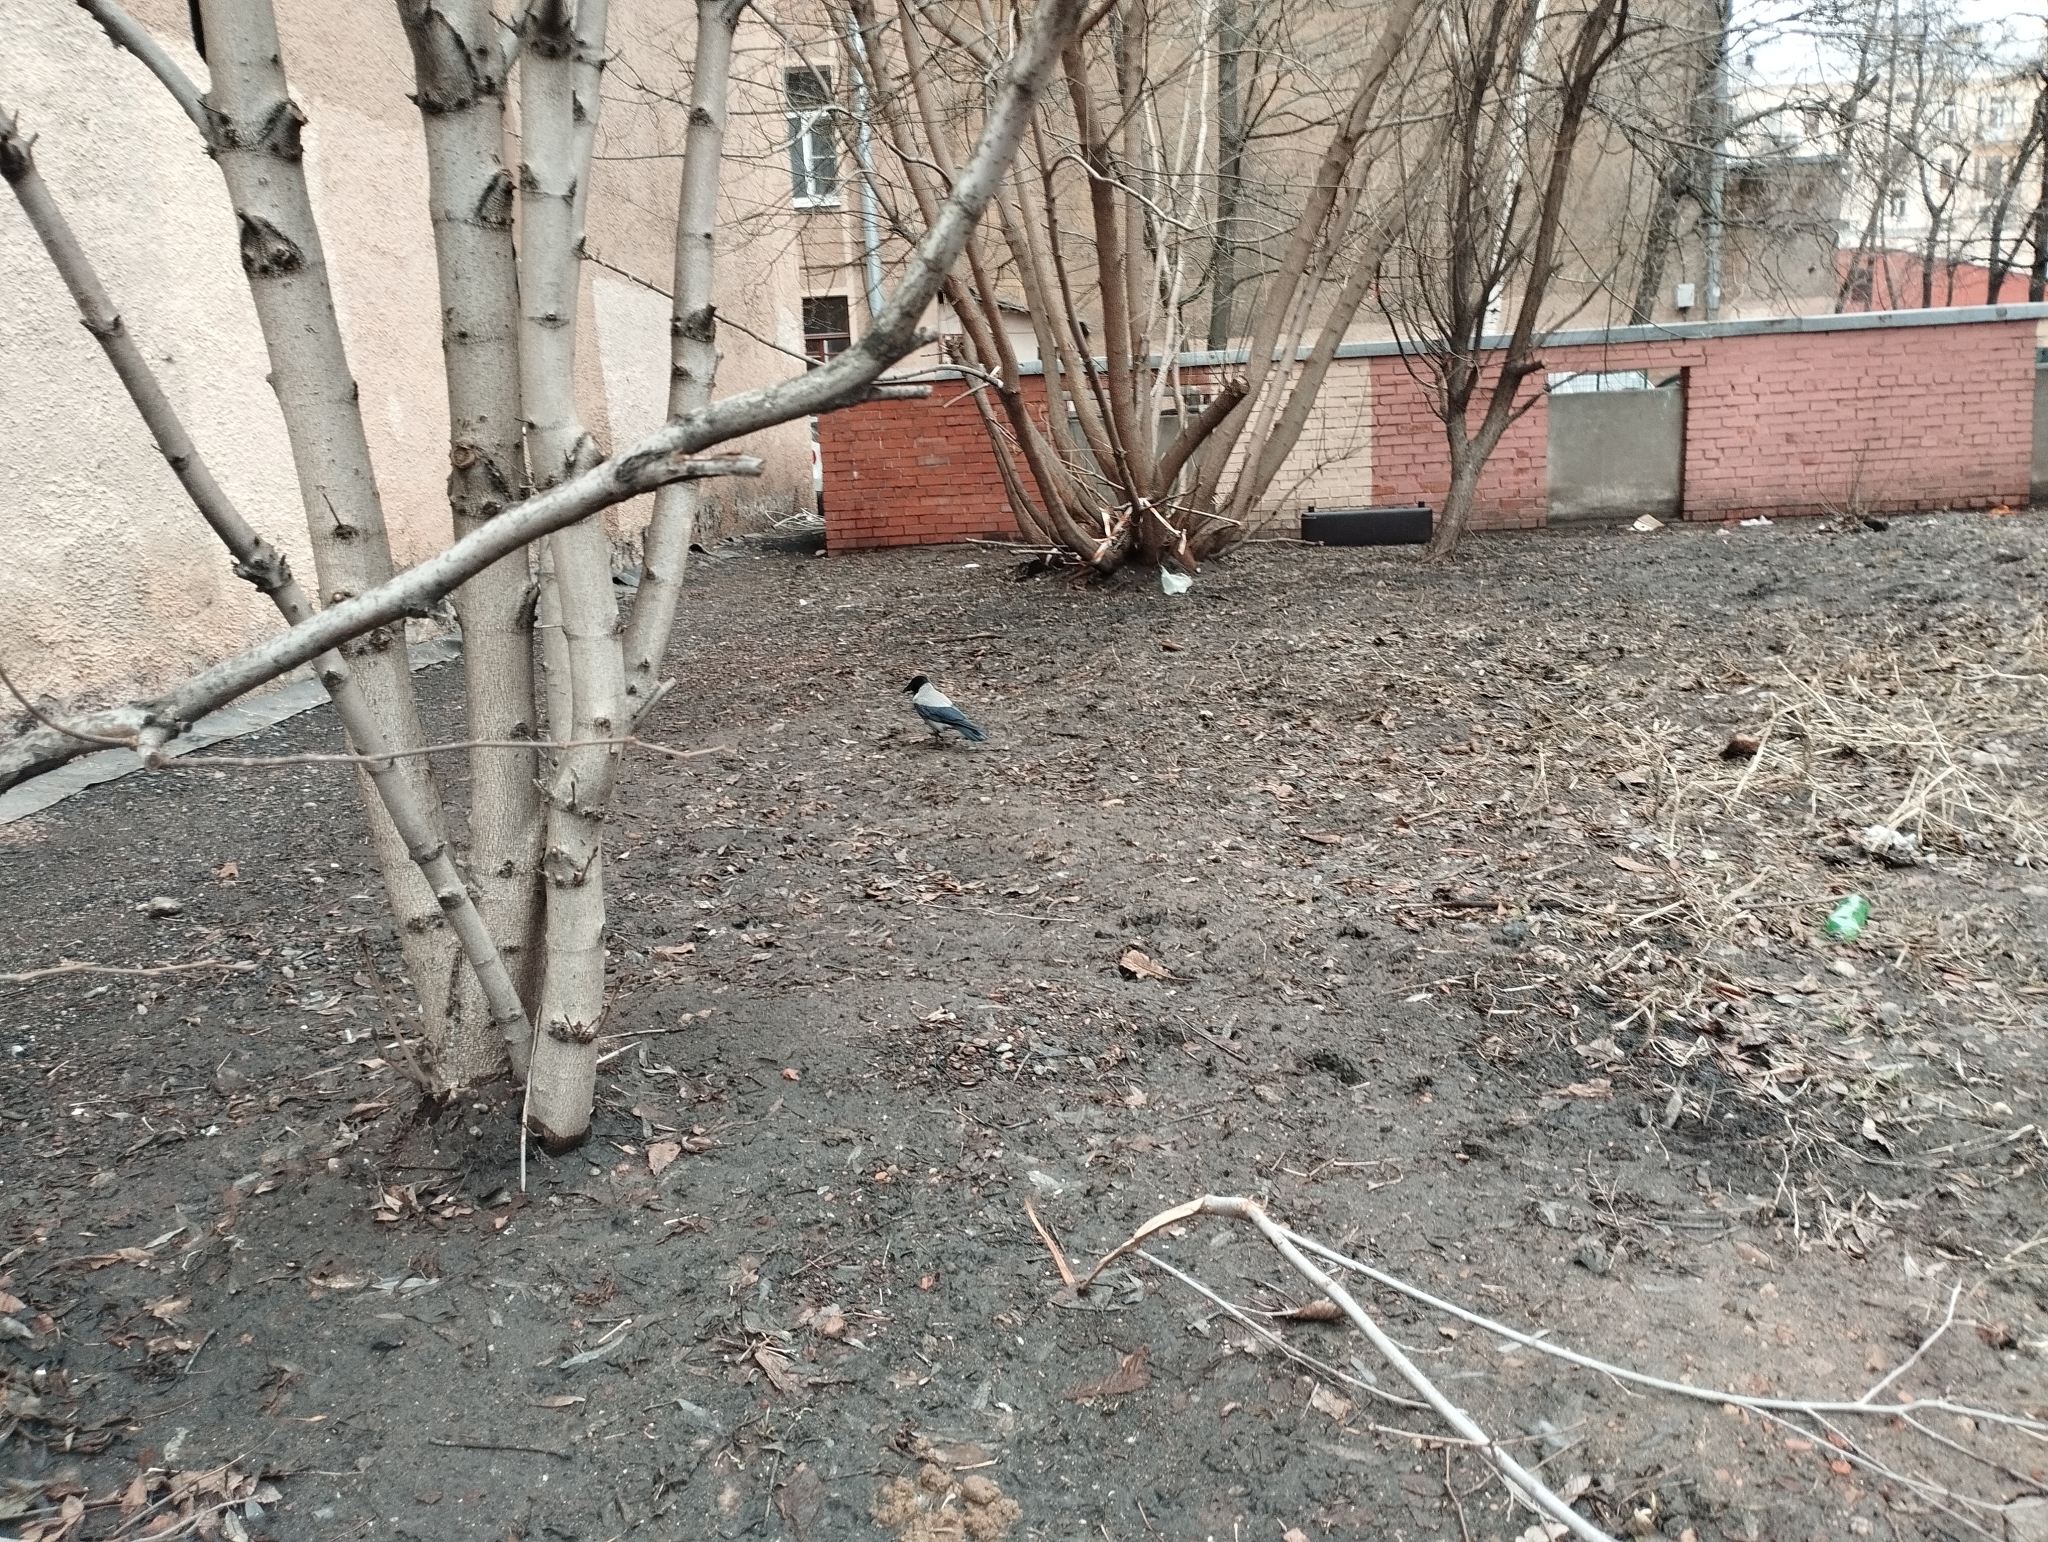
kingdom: Animalia
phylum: Chordata
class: Aves
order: Passeriformes
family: Corvidae
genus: Corvus
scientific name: Corvus cornix
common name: Hooded crow
